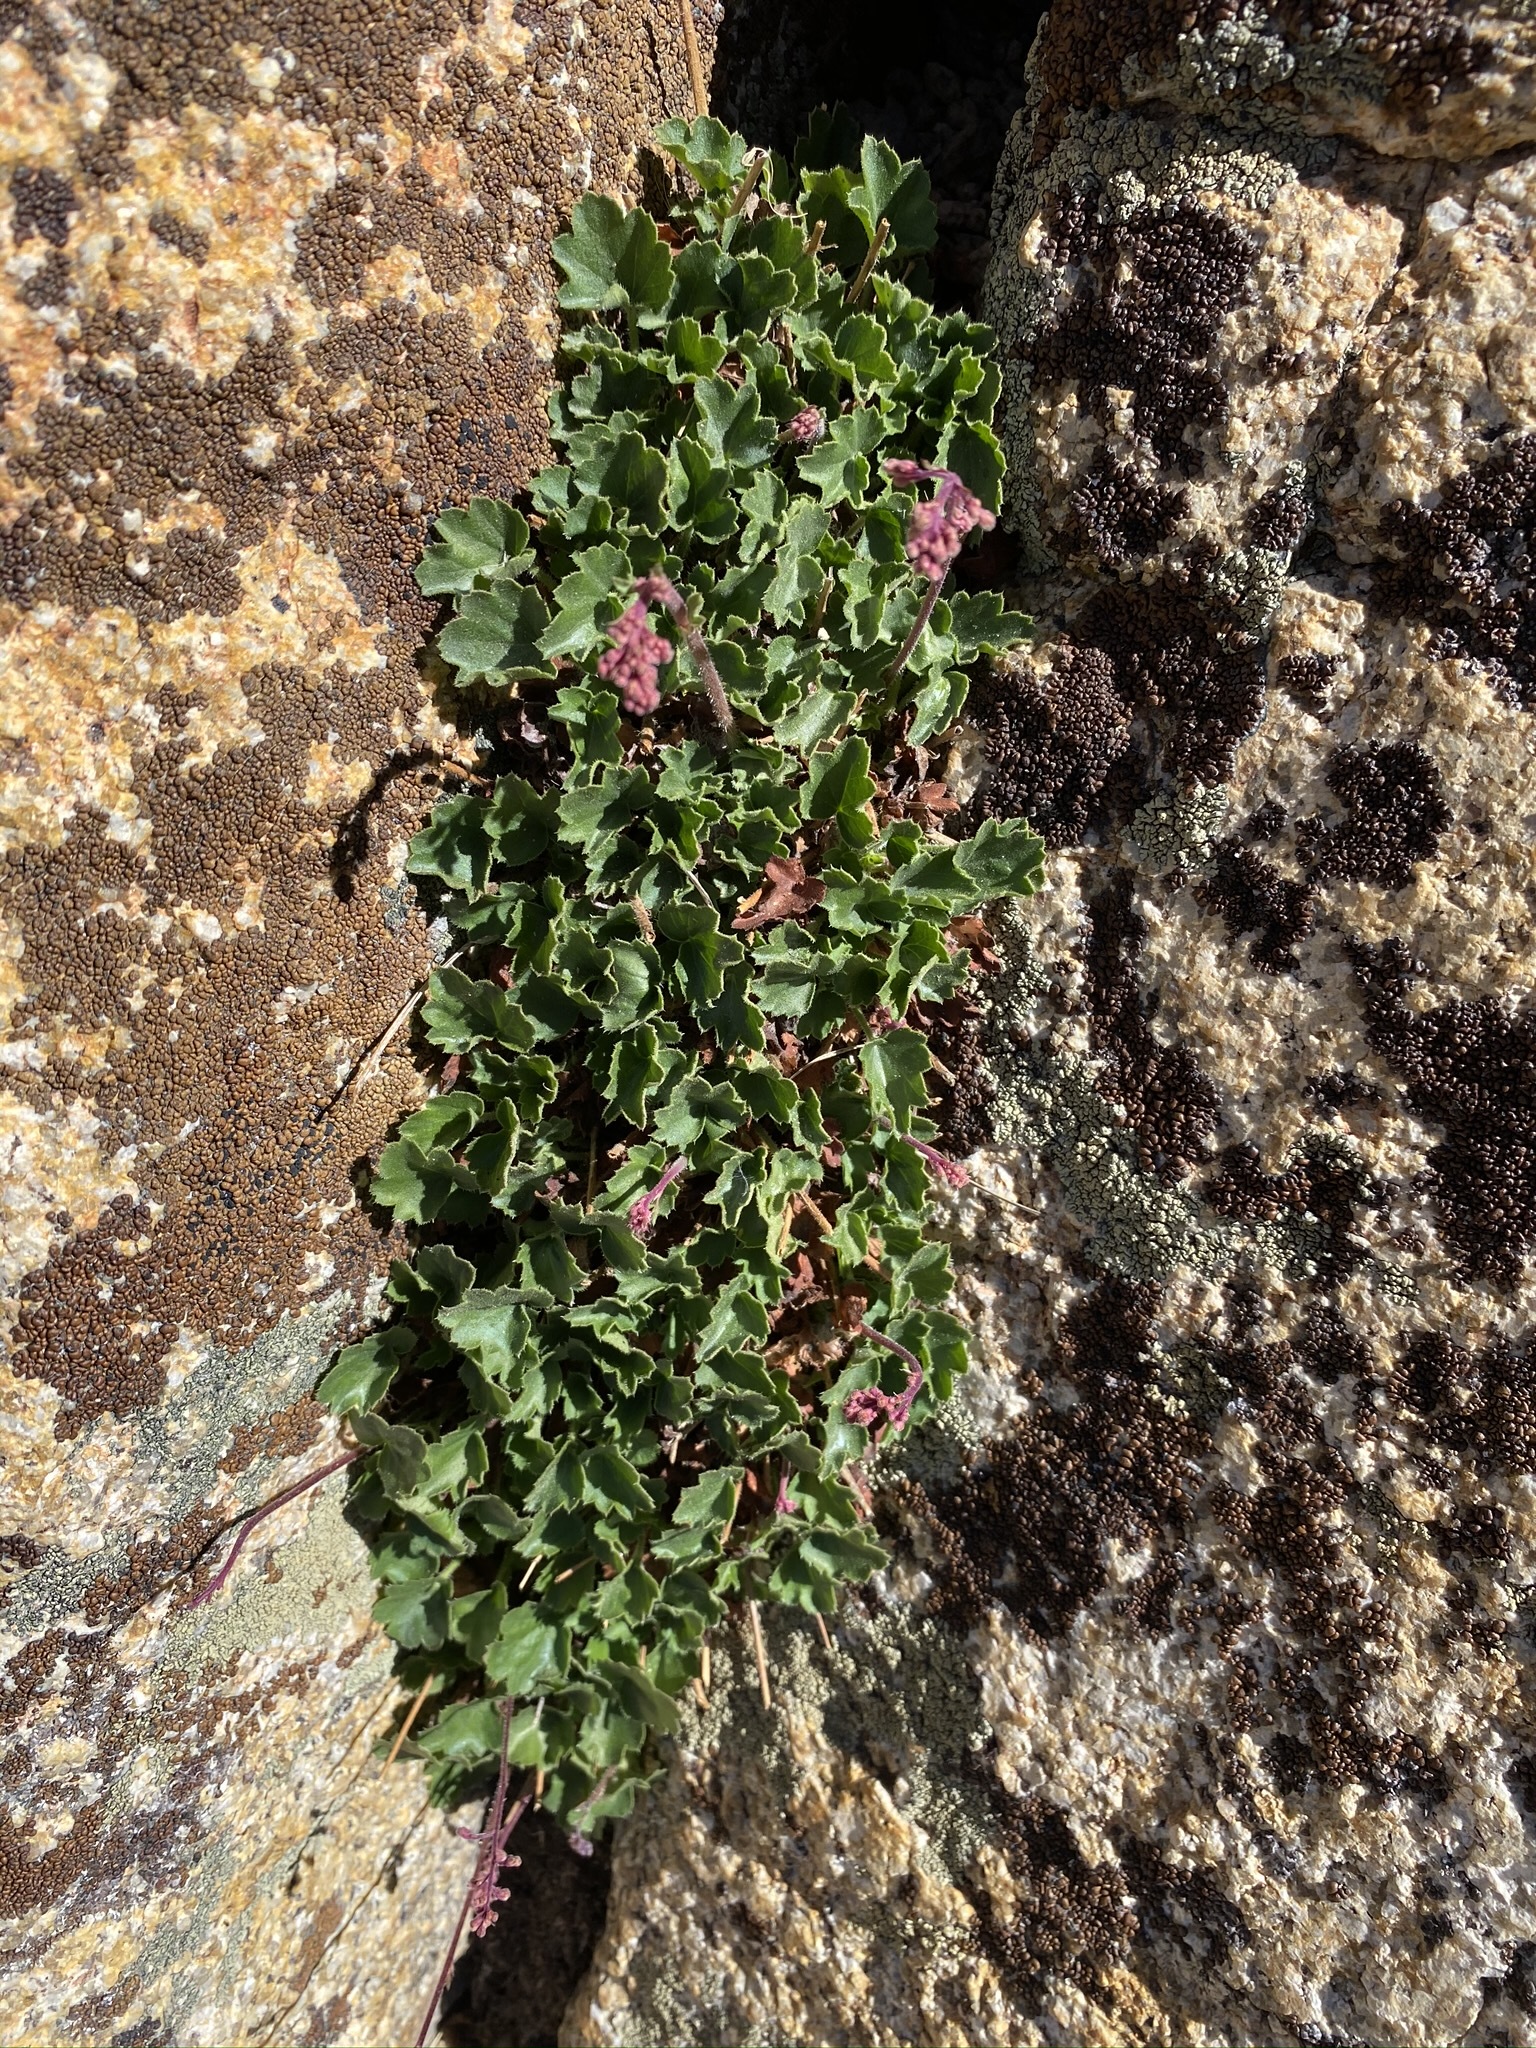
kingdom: Plantae
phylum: Tracheophyta
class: Magnoliopsida
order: Saxifragales
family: Saxifragaceae
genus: Heuchera
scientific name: Heuchera rubescens
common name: Jack-o'the-rocks
